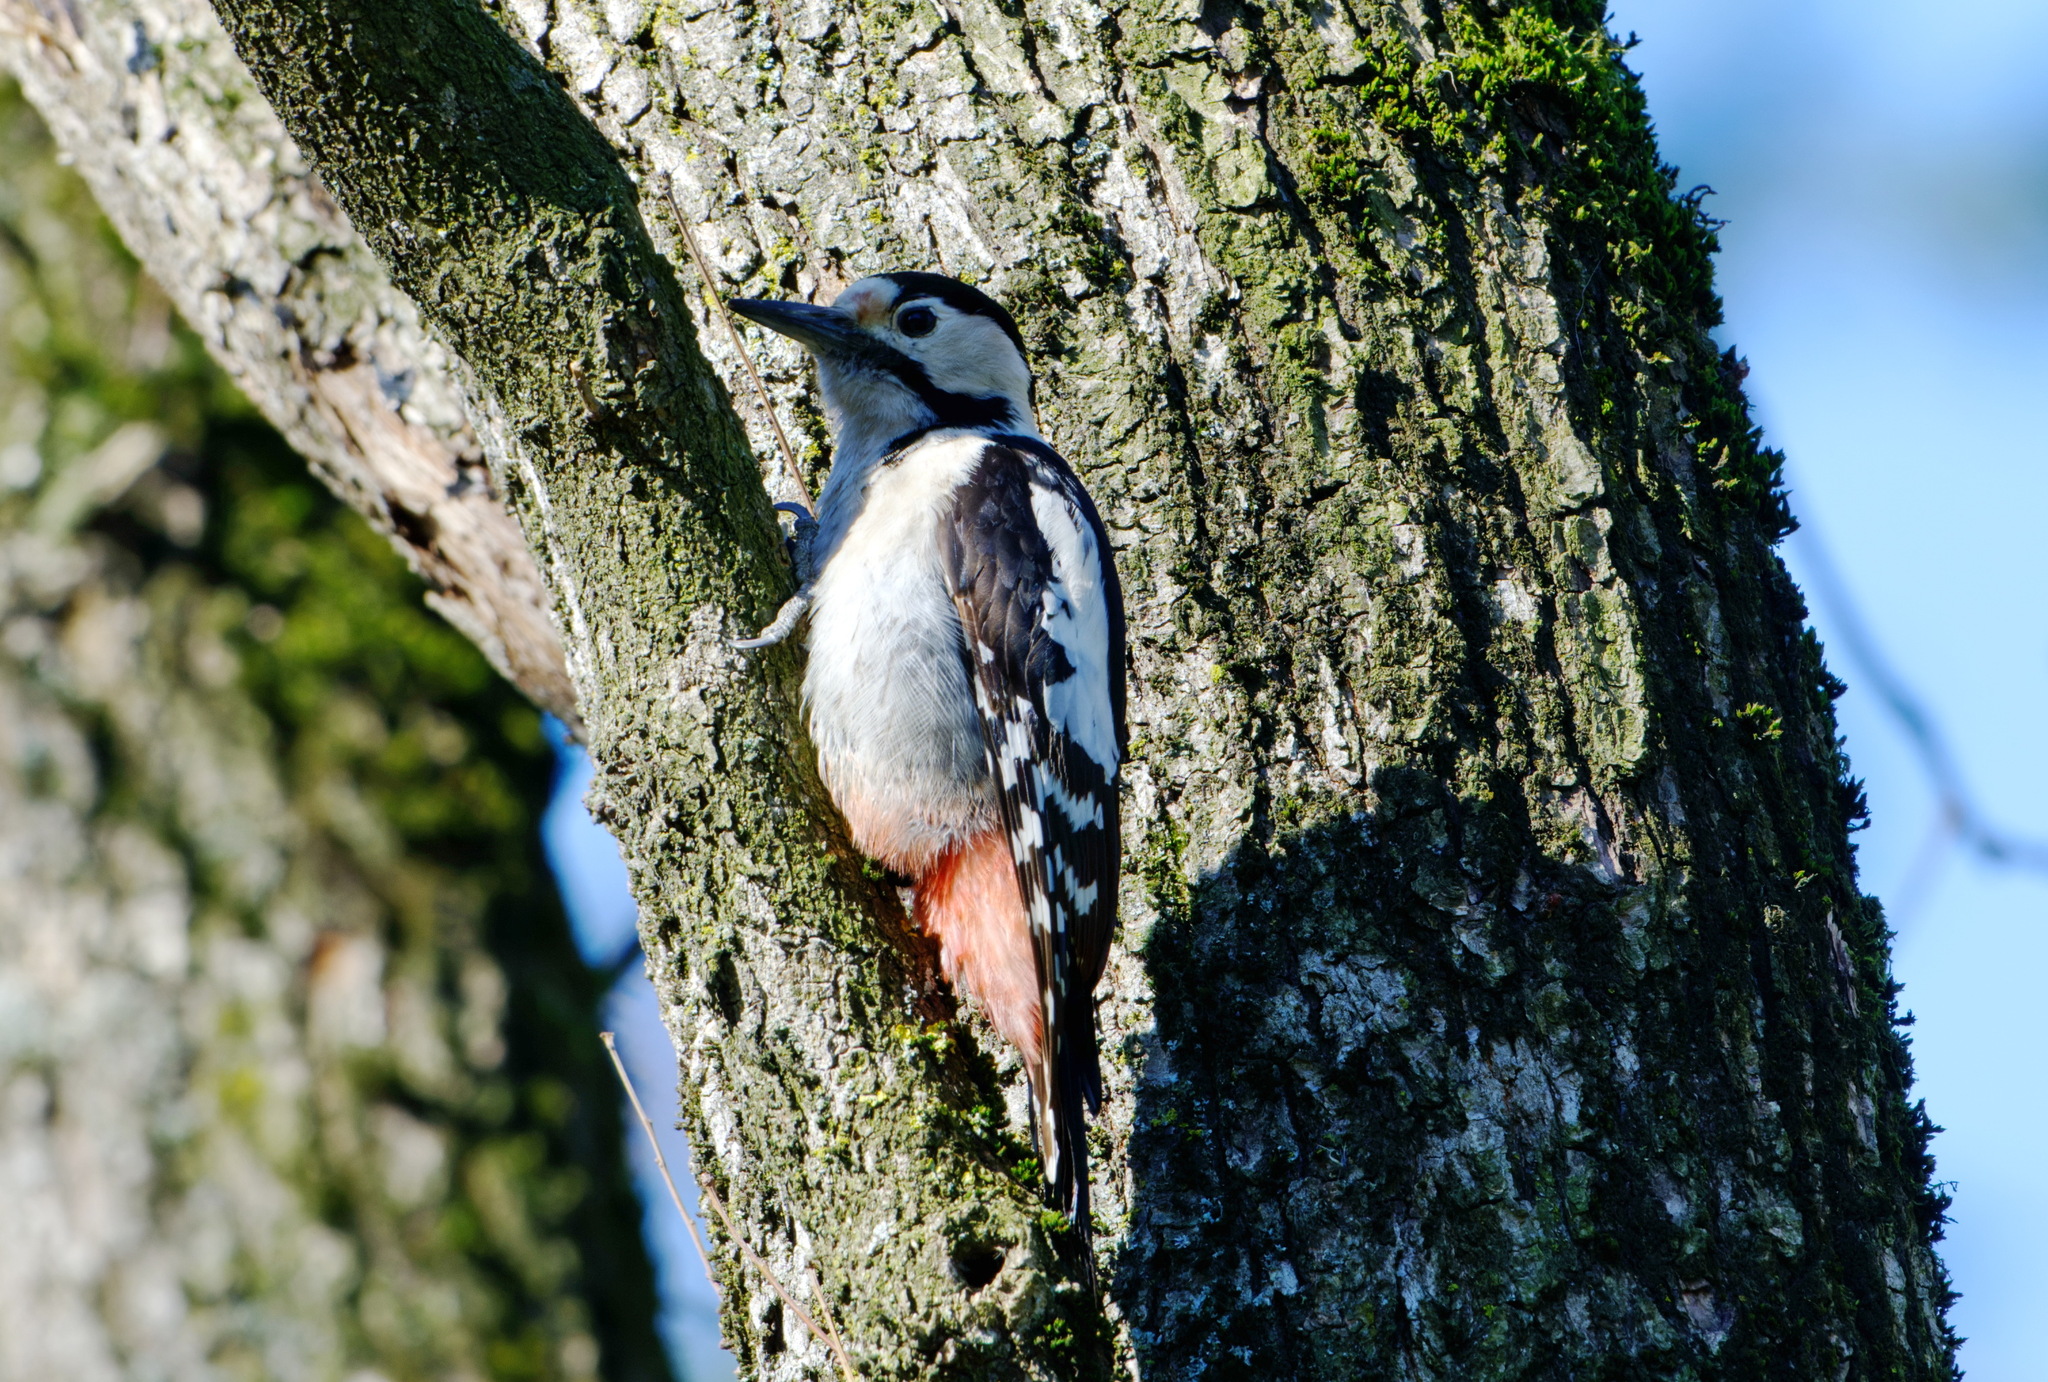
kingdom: Animalia
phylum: Chordata
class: Aves
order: Piciformes
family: Picidae
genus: Dendrocopos
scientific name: Dendrocopos syriacus
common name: Syrian woodpecker
